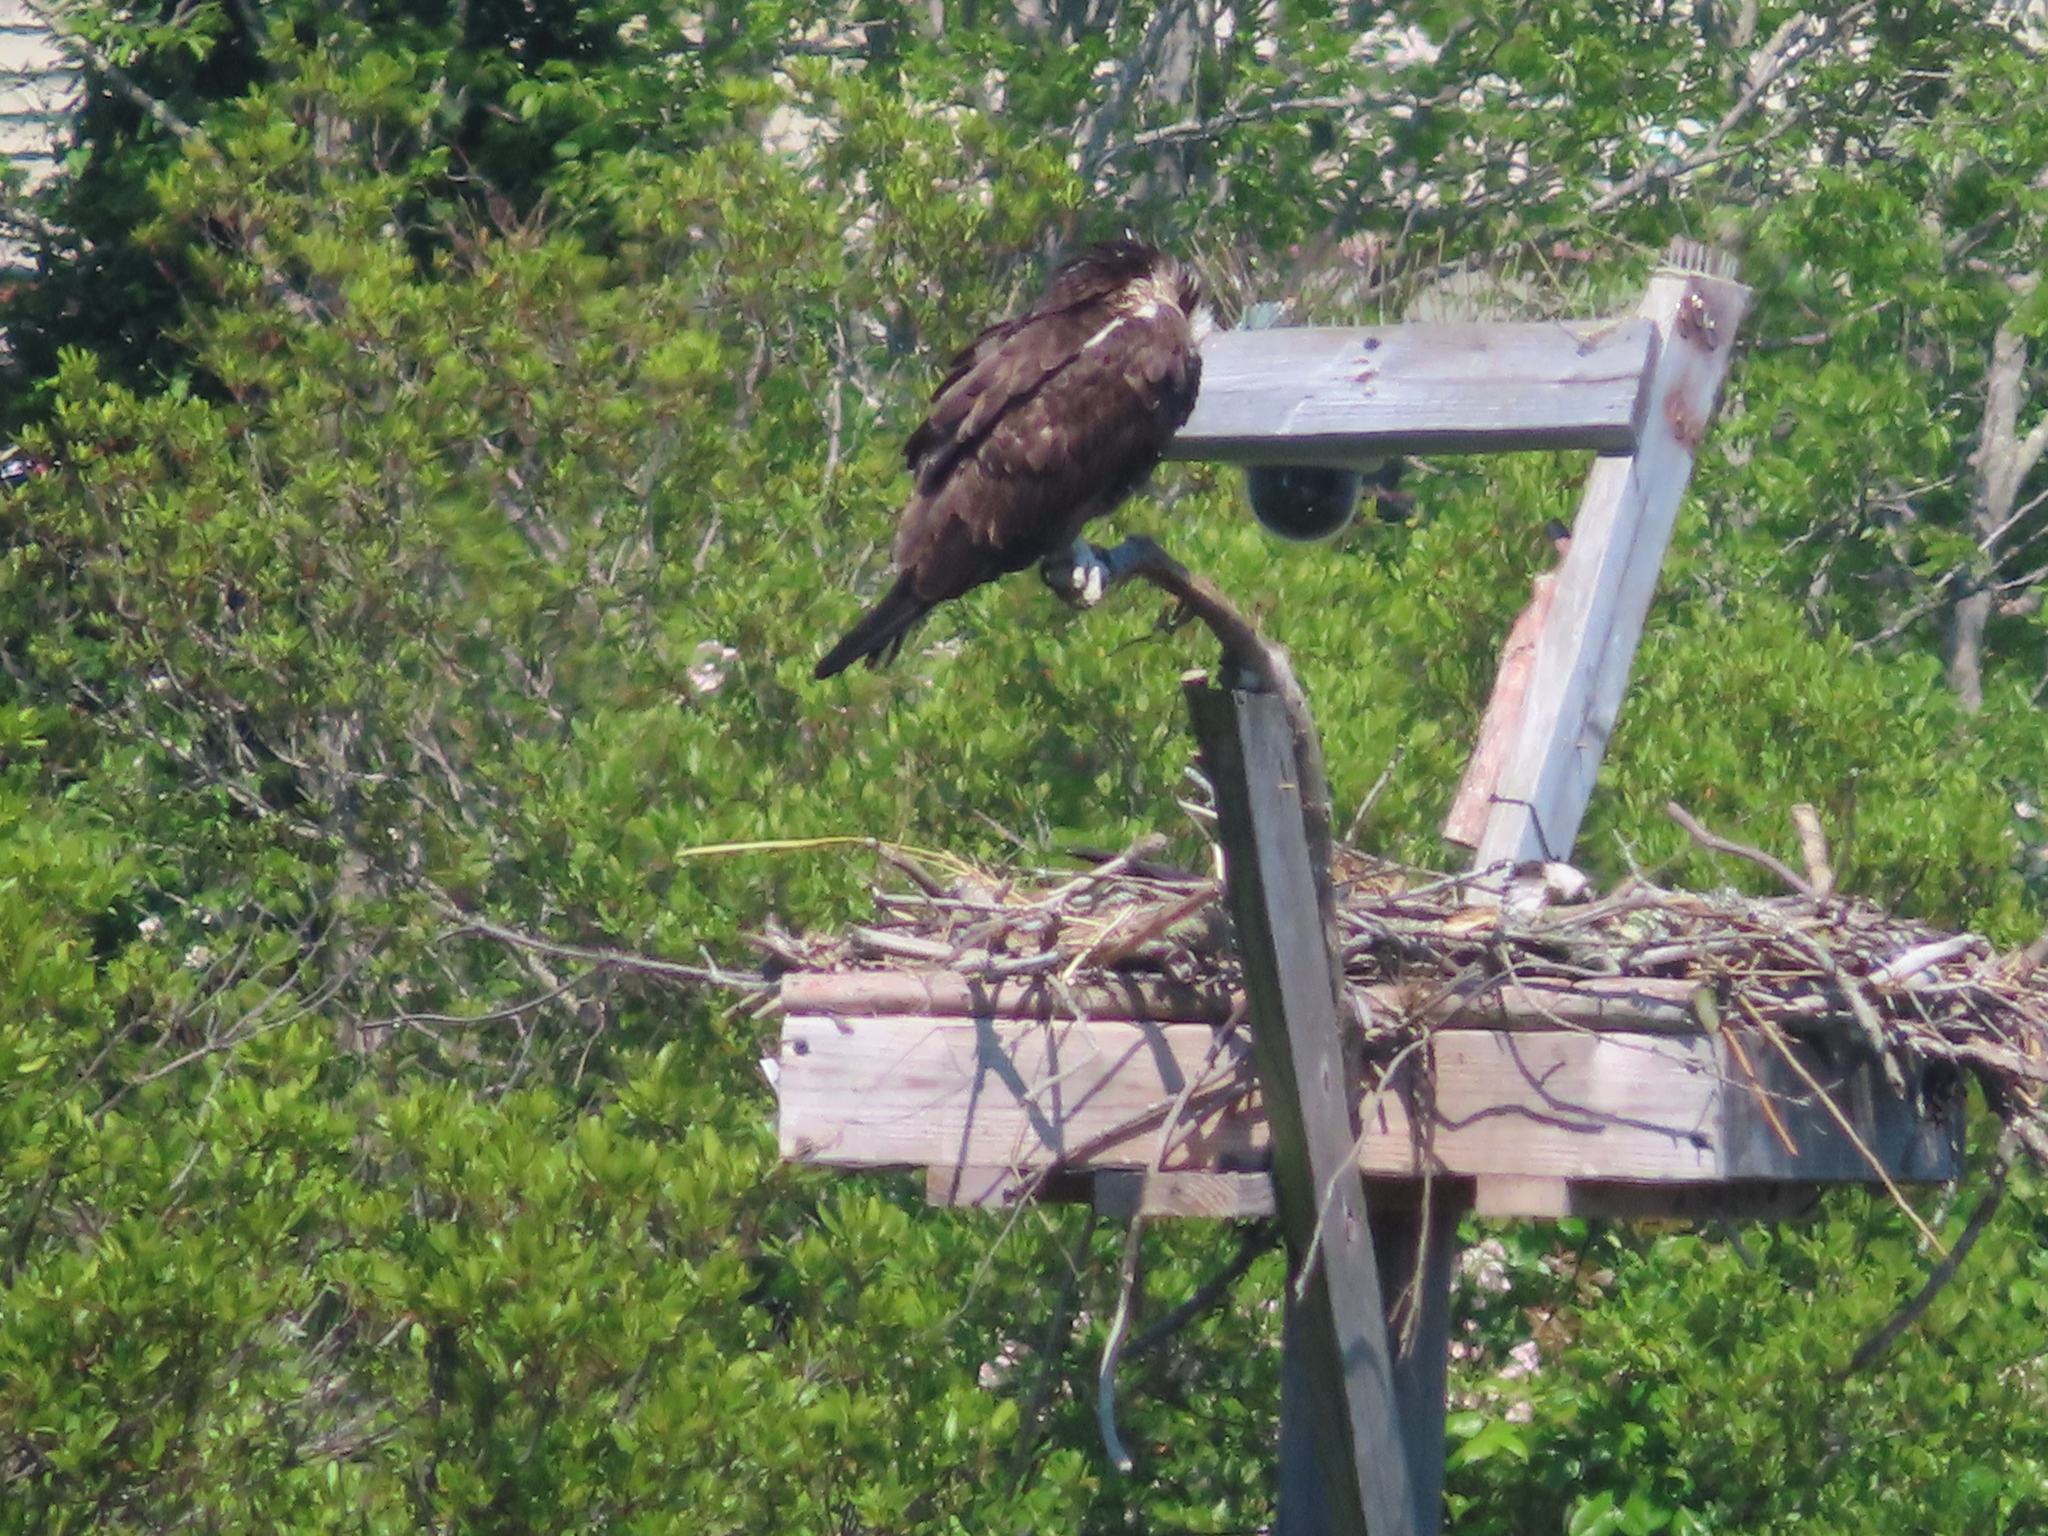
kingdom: Animalia
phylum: Chordata
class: Aves
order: Accipitriformes
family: Pandionidae
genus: Pandion
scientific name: Pandion haliaetus
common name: Osprey
